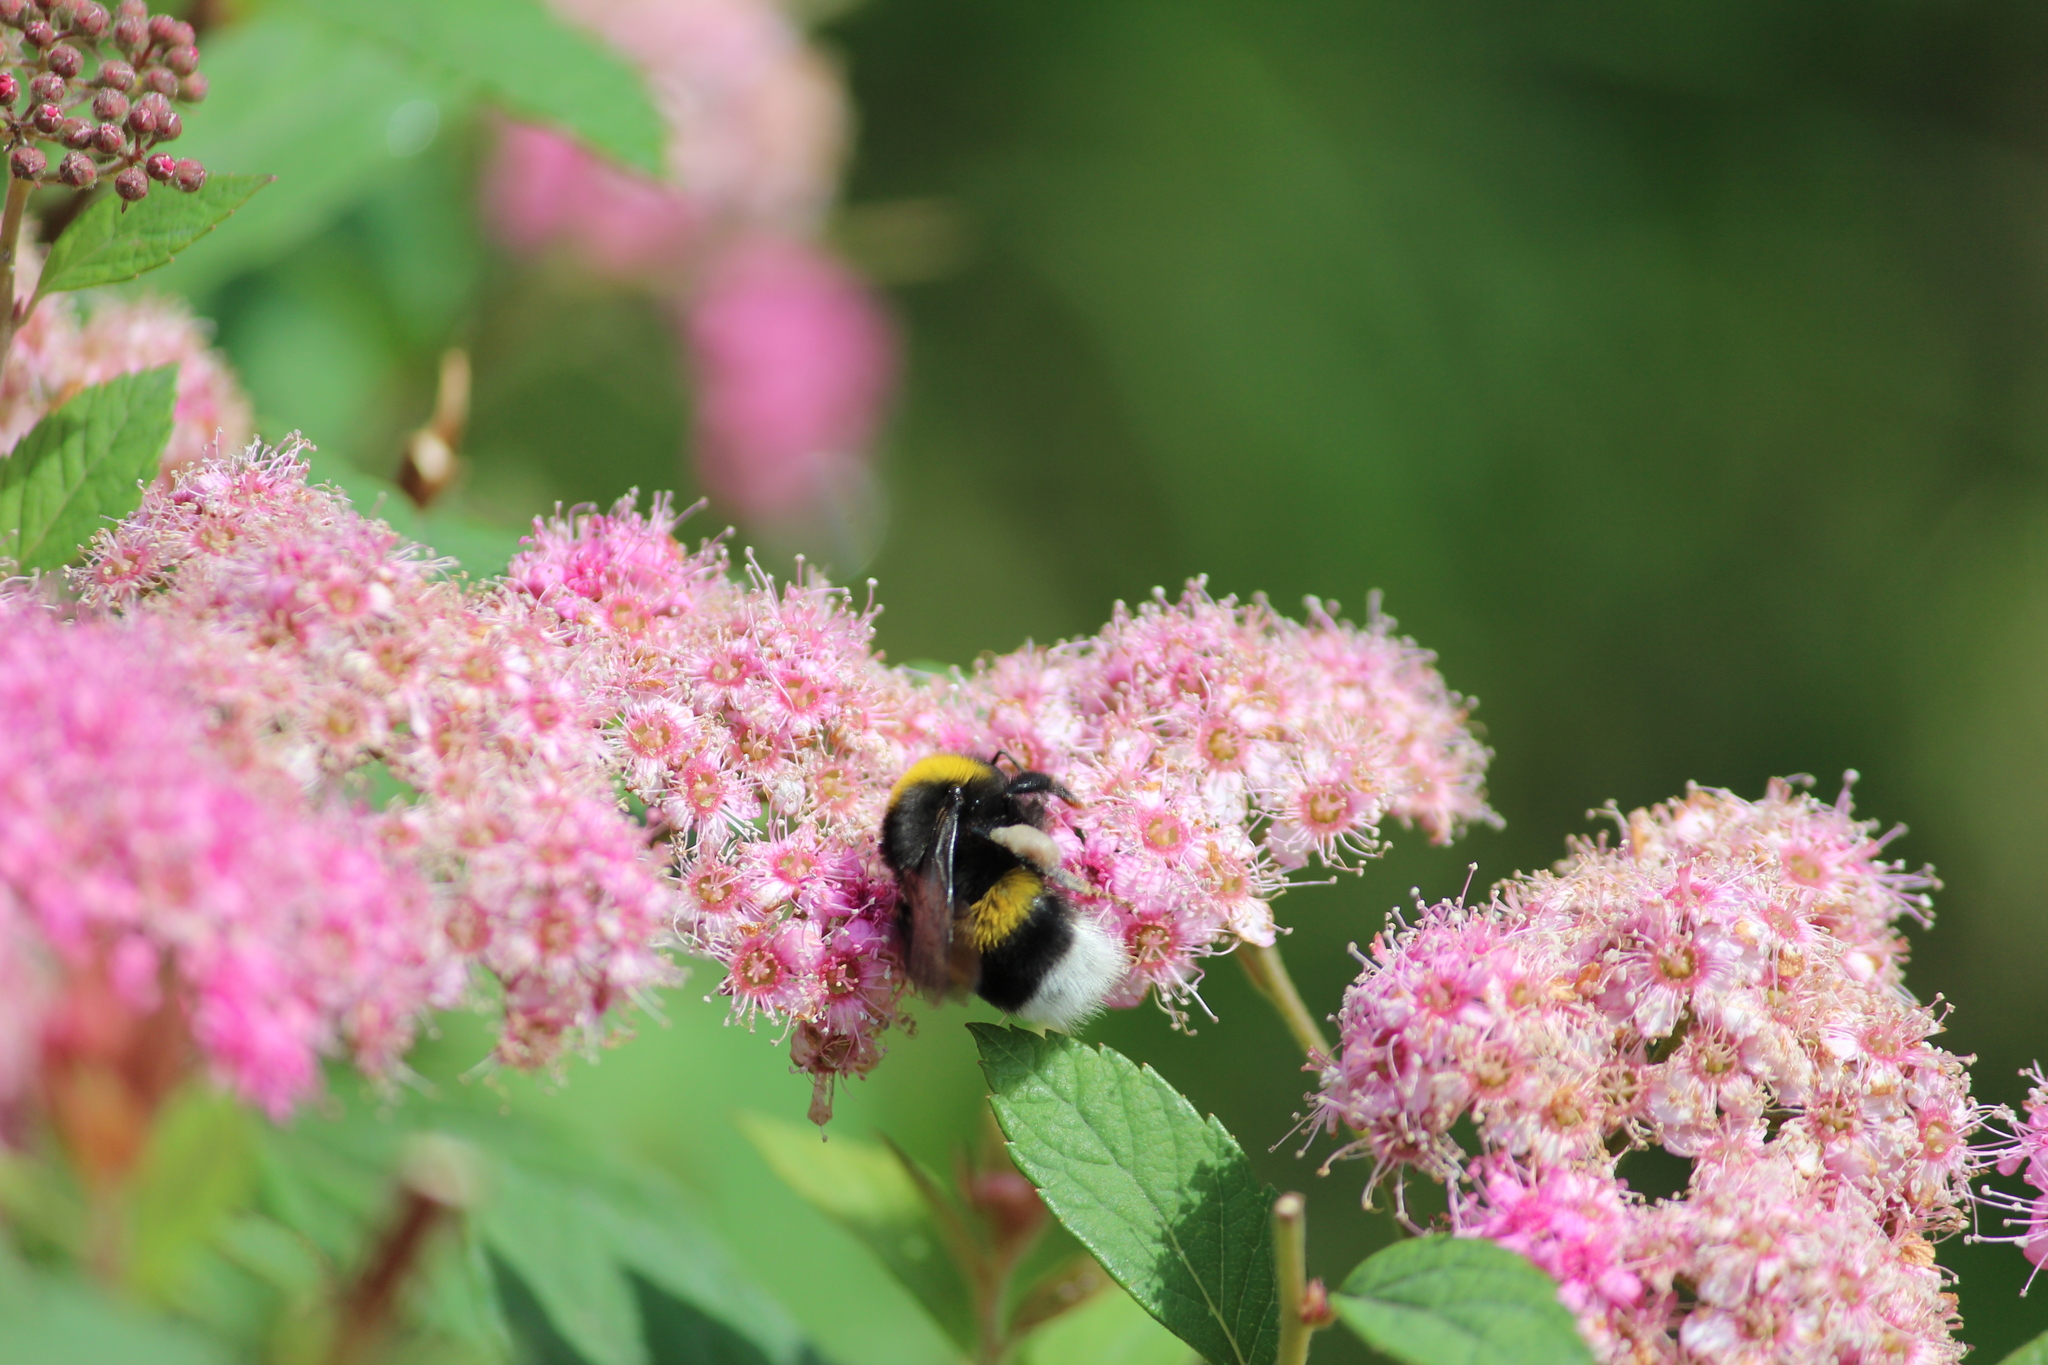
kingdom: Animalia
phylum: Arthropoda
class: Insecta
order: Hymenoptera
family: Apidae
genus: Bombus
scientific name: Bombus
